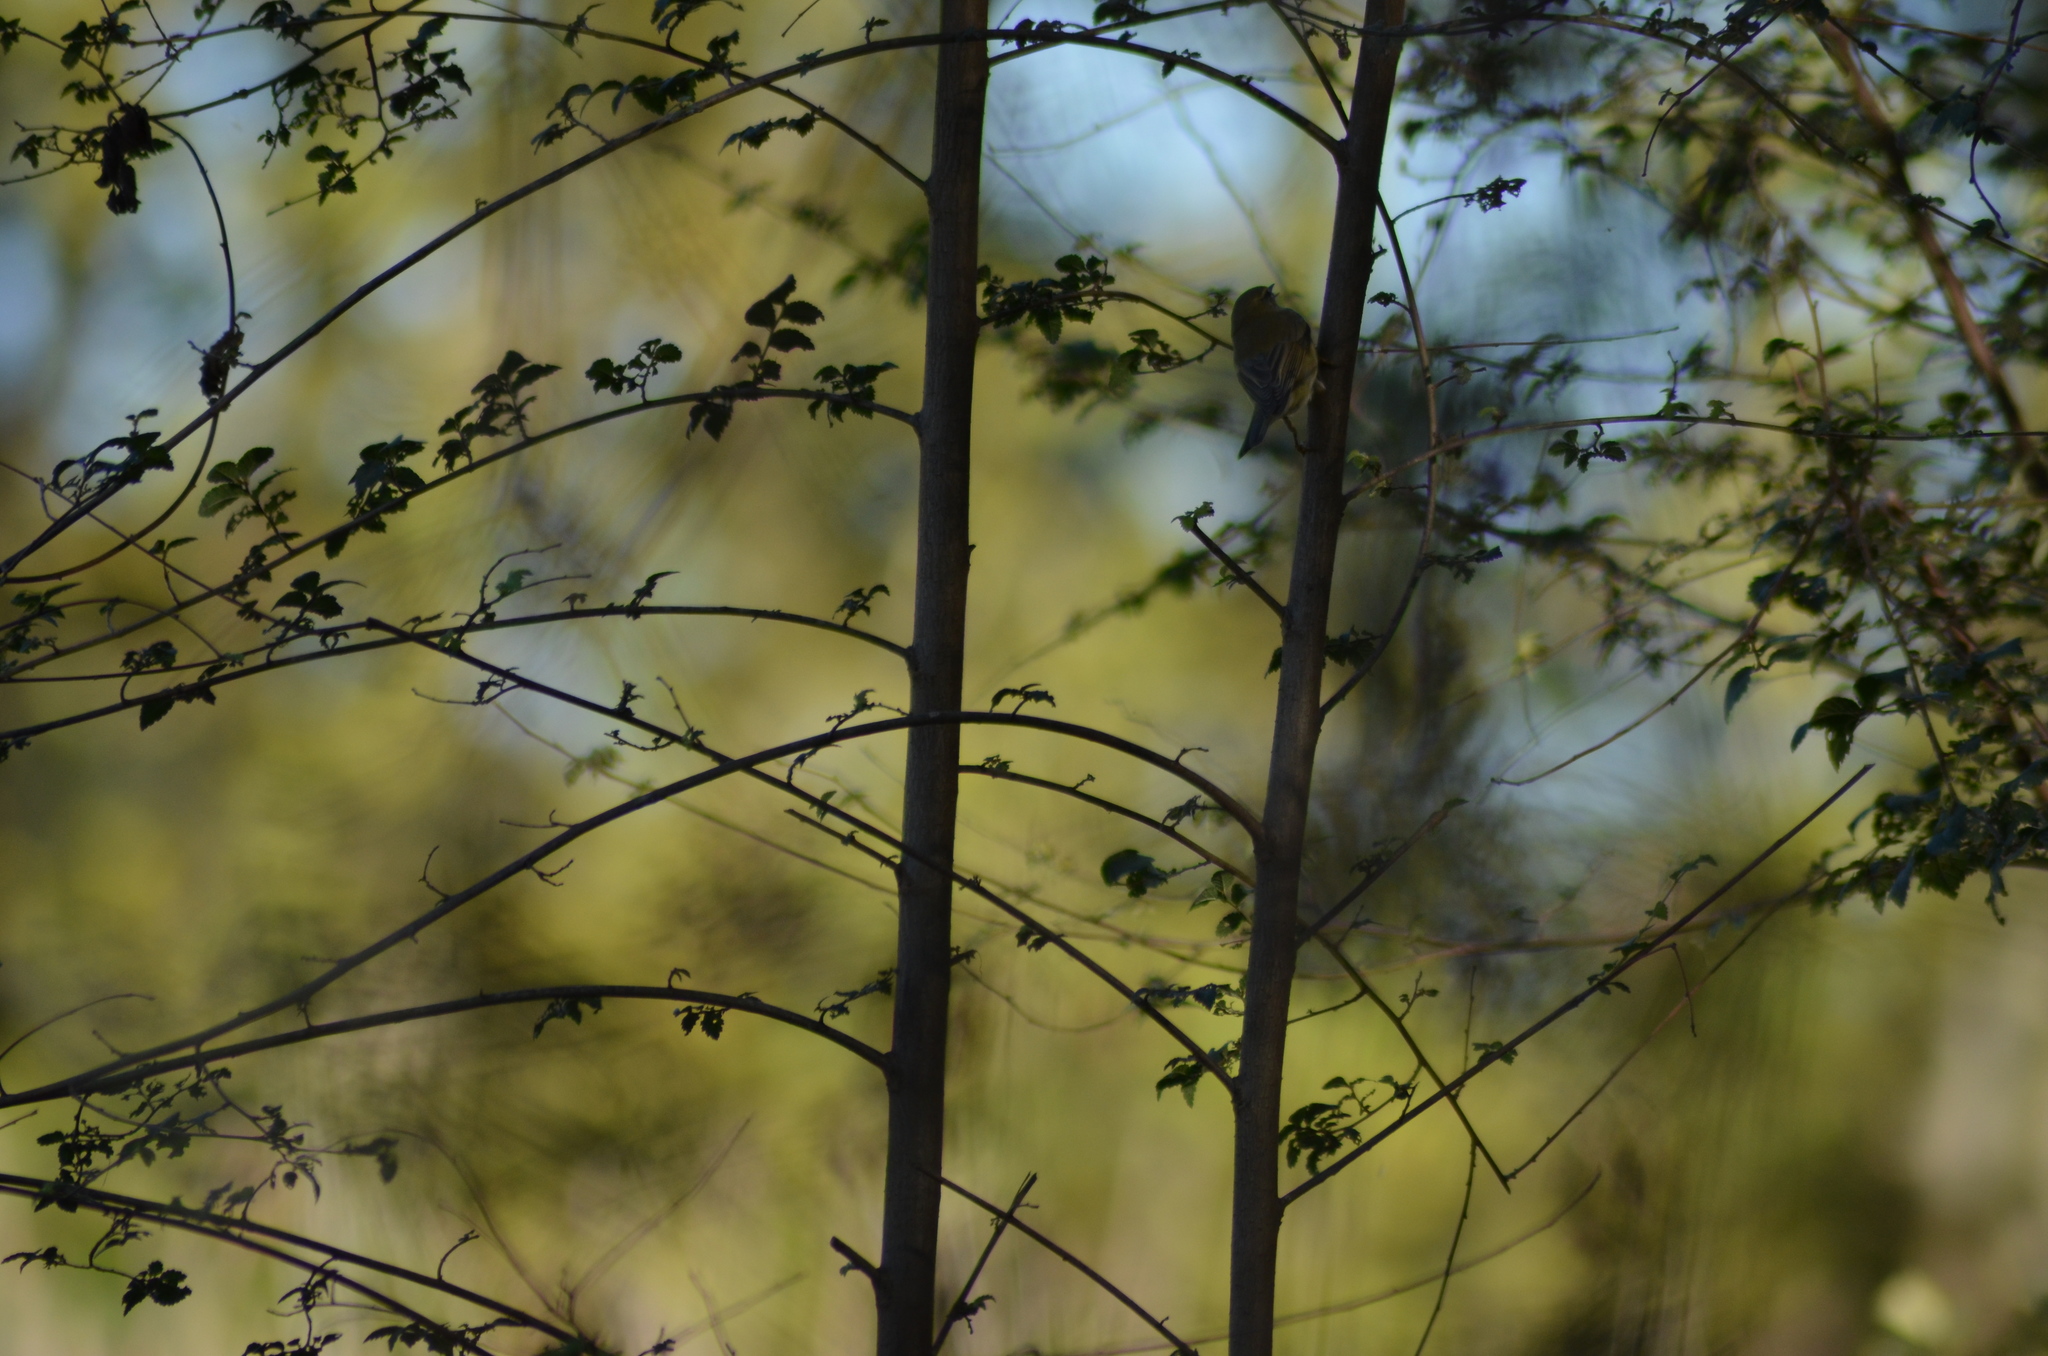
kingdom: Animalia
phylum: Chordata
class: Aves
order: Passeriformes
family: Phylloscopidae
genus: Phylloscopus
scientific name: Phylloscopus trochilus
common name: Willow warbler
